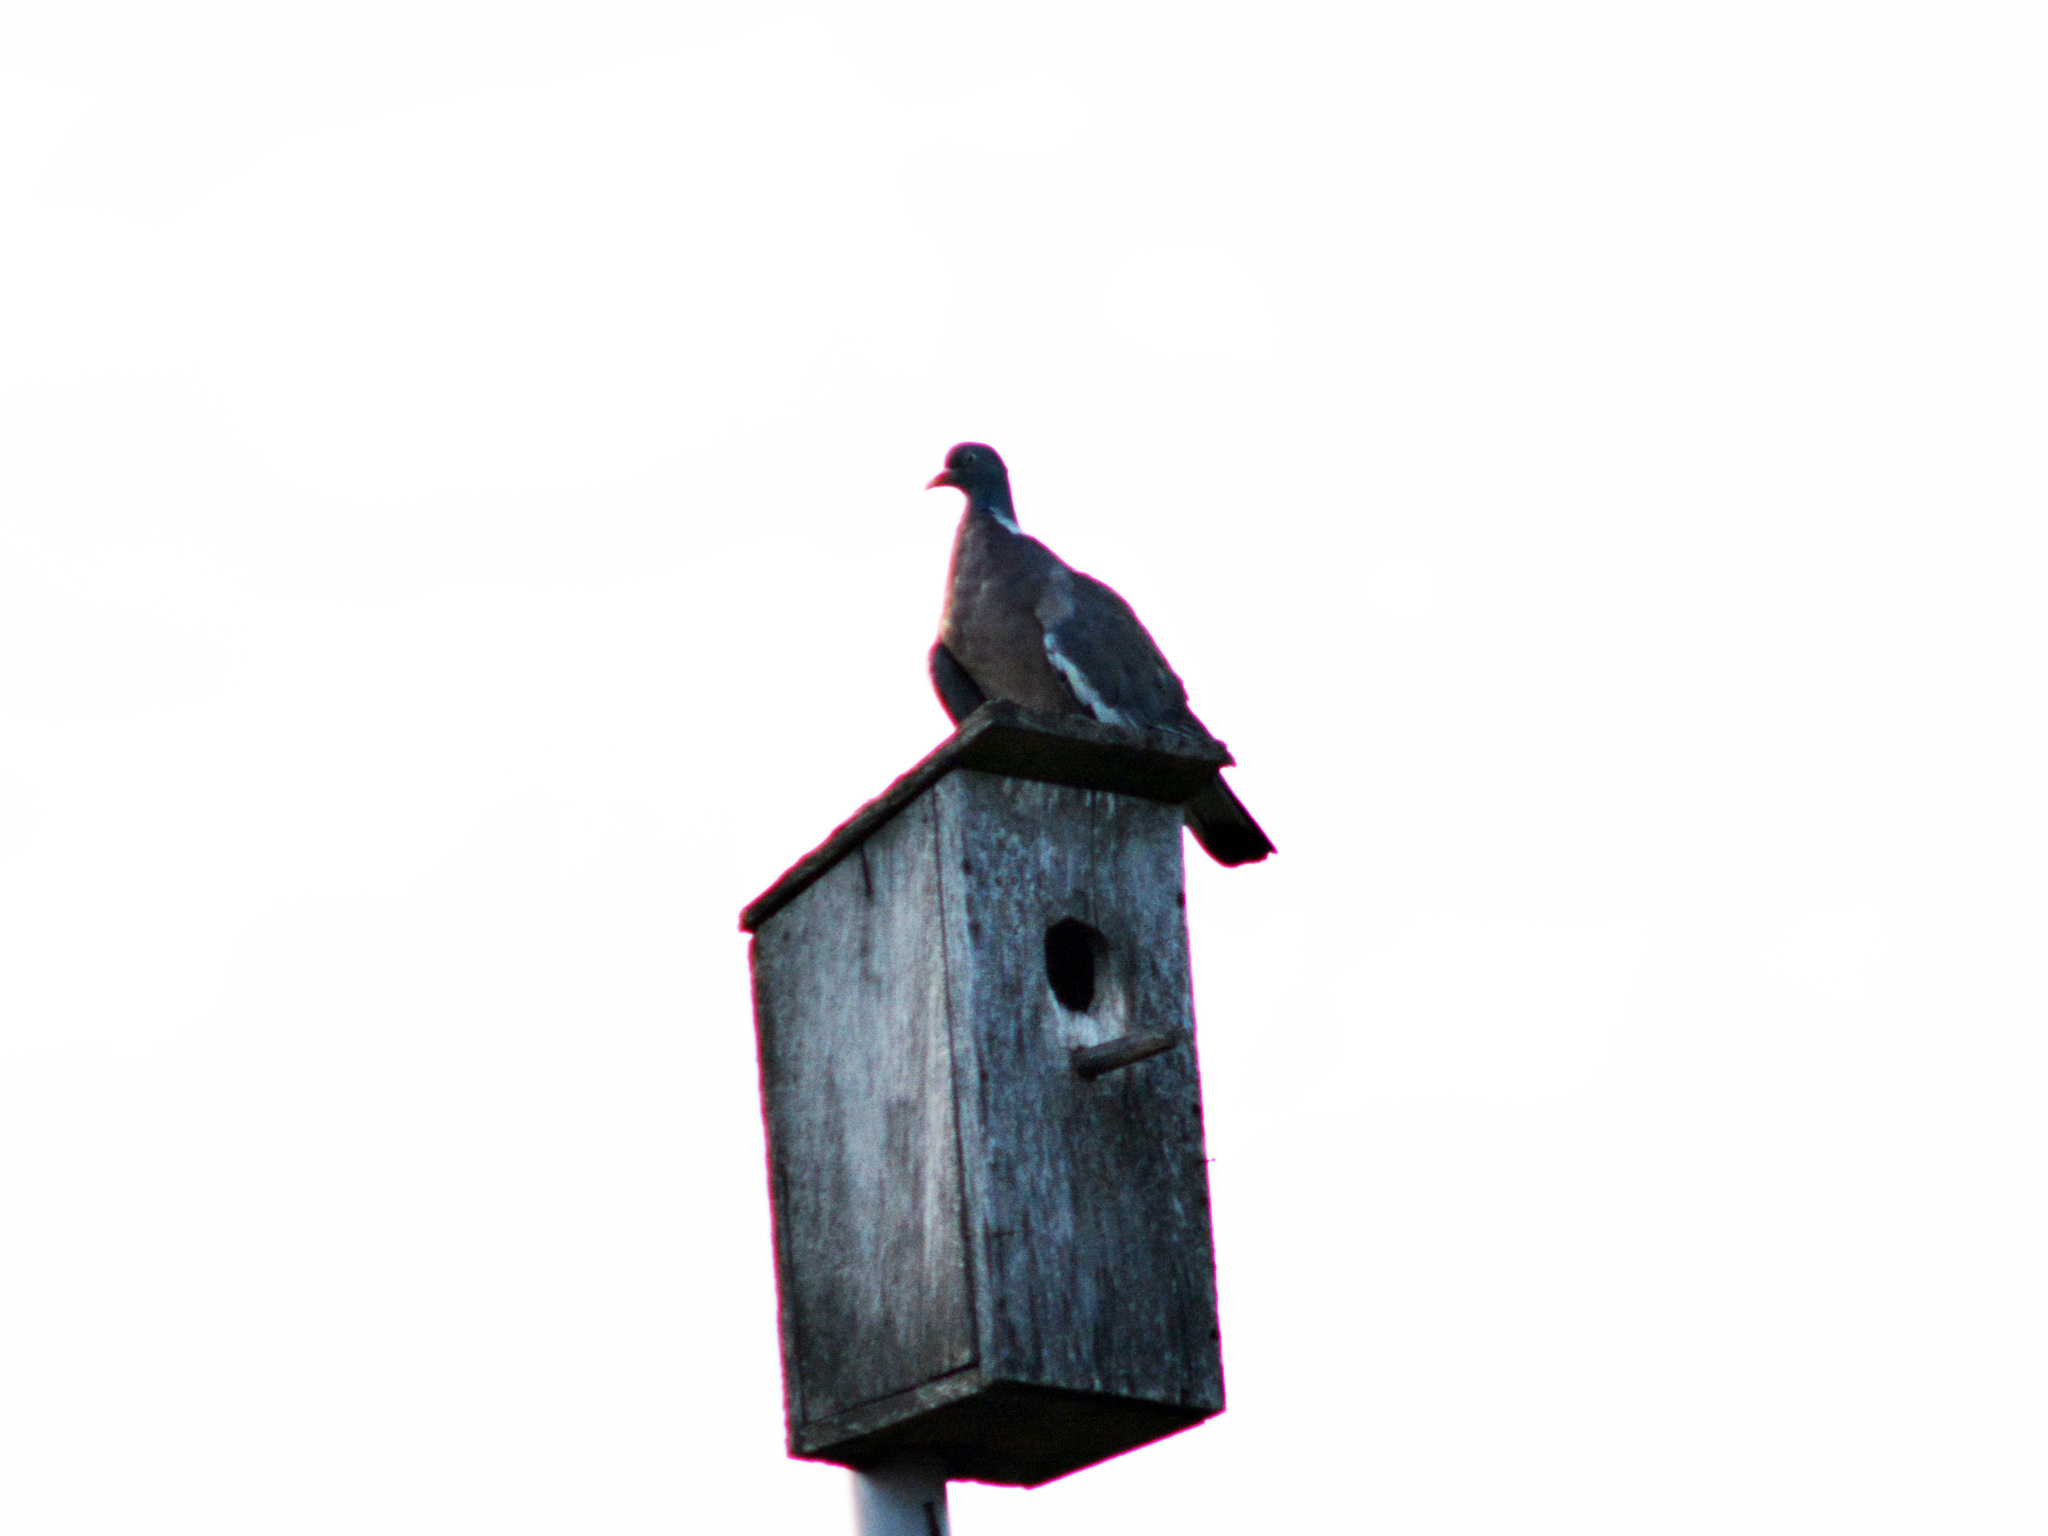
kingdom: Animalia
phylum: Chordata
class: Aves
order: Columbiformes
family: Columbidae
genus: Columba
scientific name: Columba palumbus
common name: Common wood pigeon
